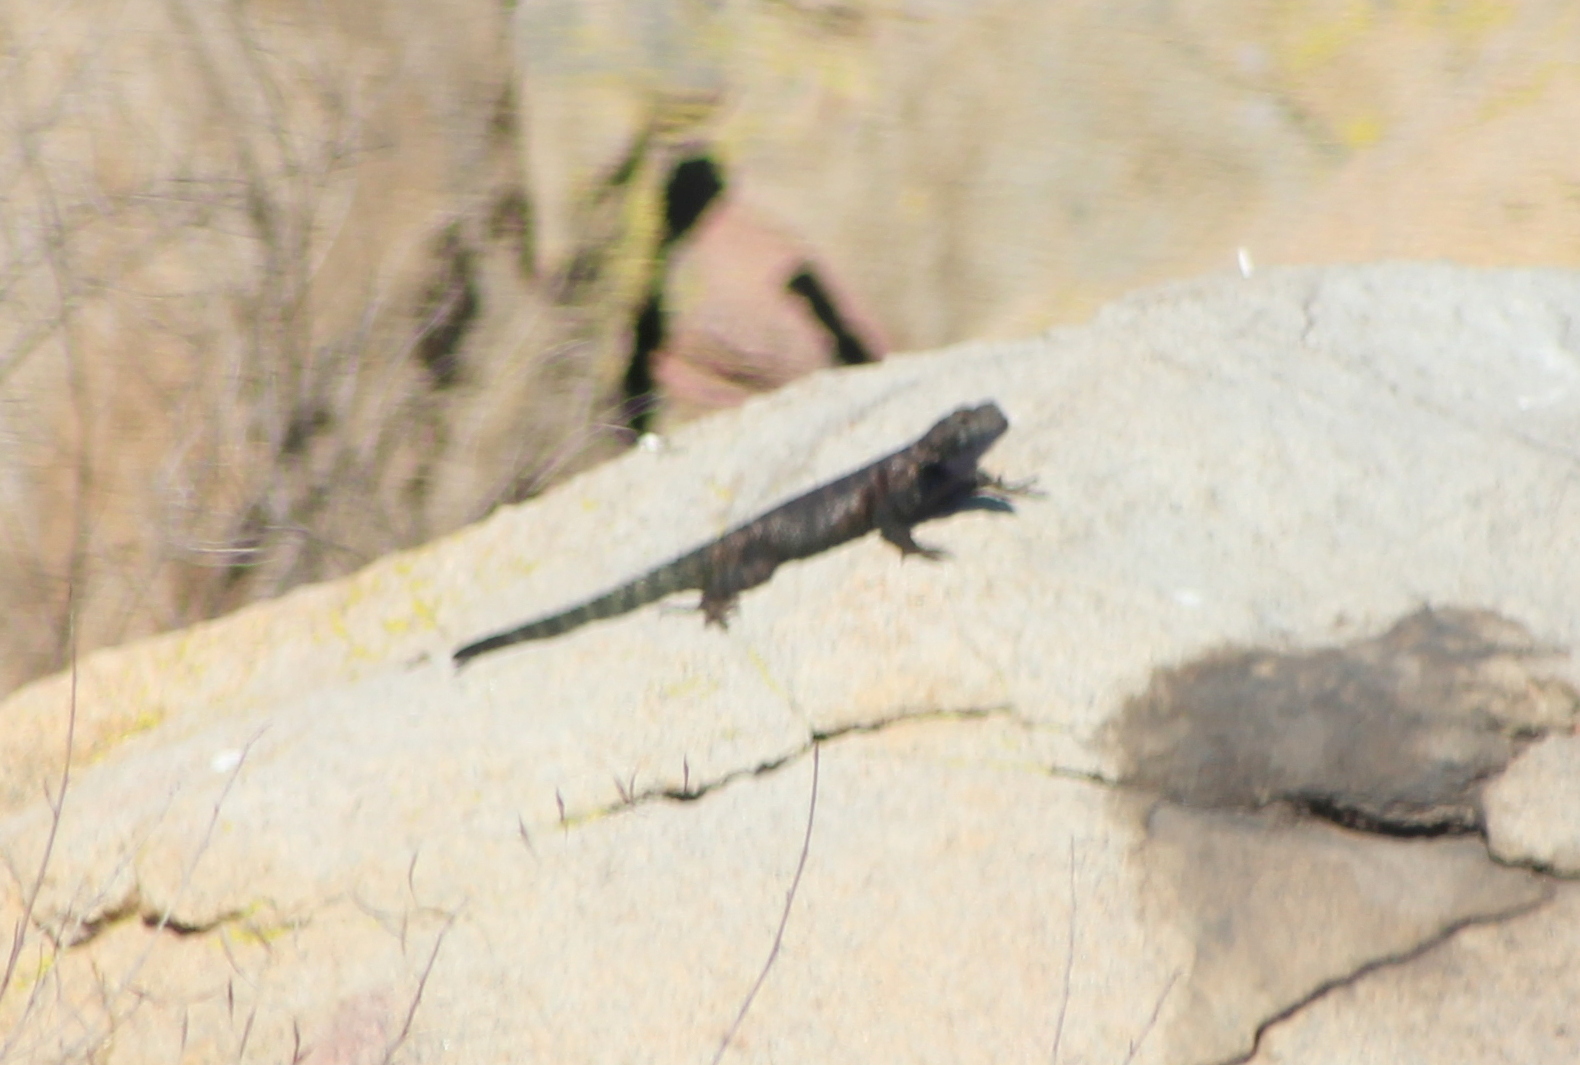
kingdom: Animalia
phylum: Chordata
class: Squamata
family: Phrynosomatidae
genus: Sceloporus
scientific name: Sceloporus orcutti
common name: Granite spiny lizard
